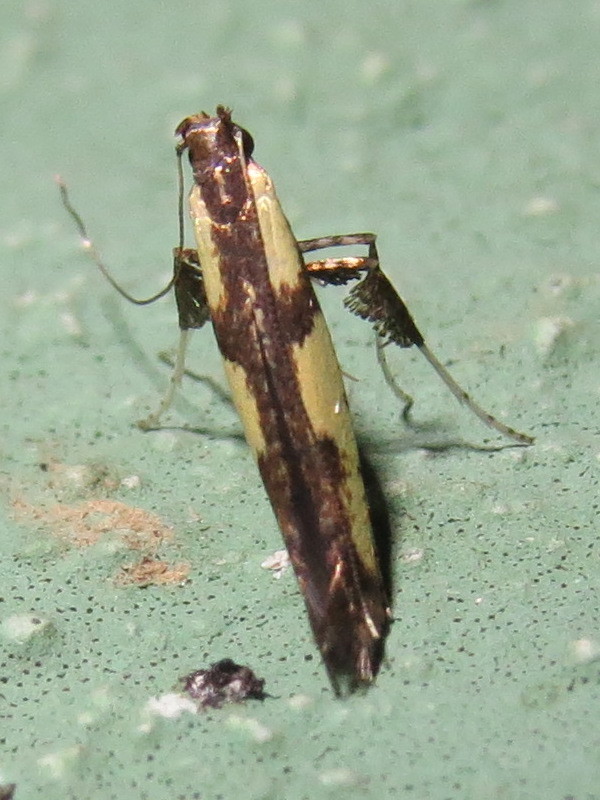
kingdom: Animalia
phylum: Arthropoda
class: Insecta
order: Lepidoptera
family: Gracillariidae
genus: Caloptilia
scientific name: Caloptilia blandella
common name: Walnut caloptilia moth
